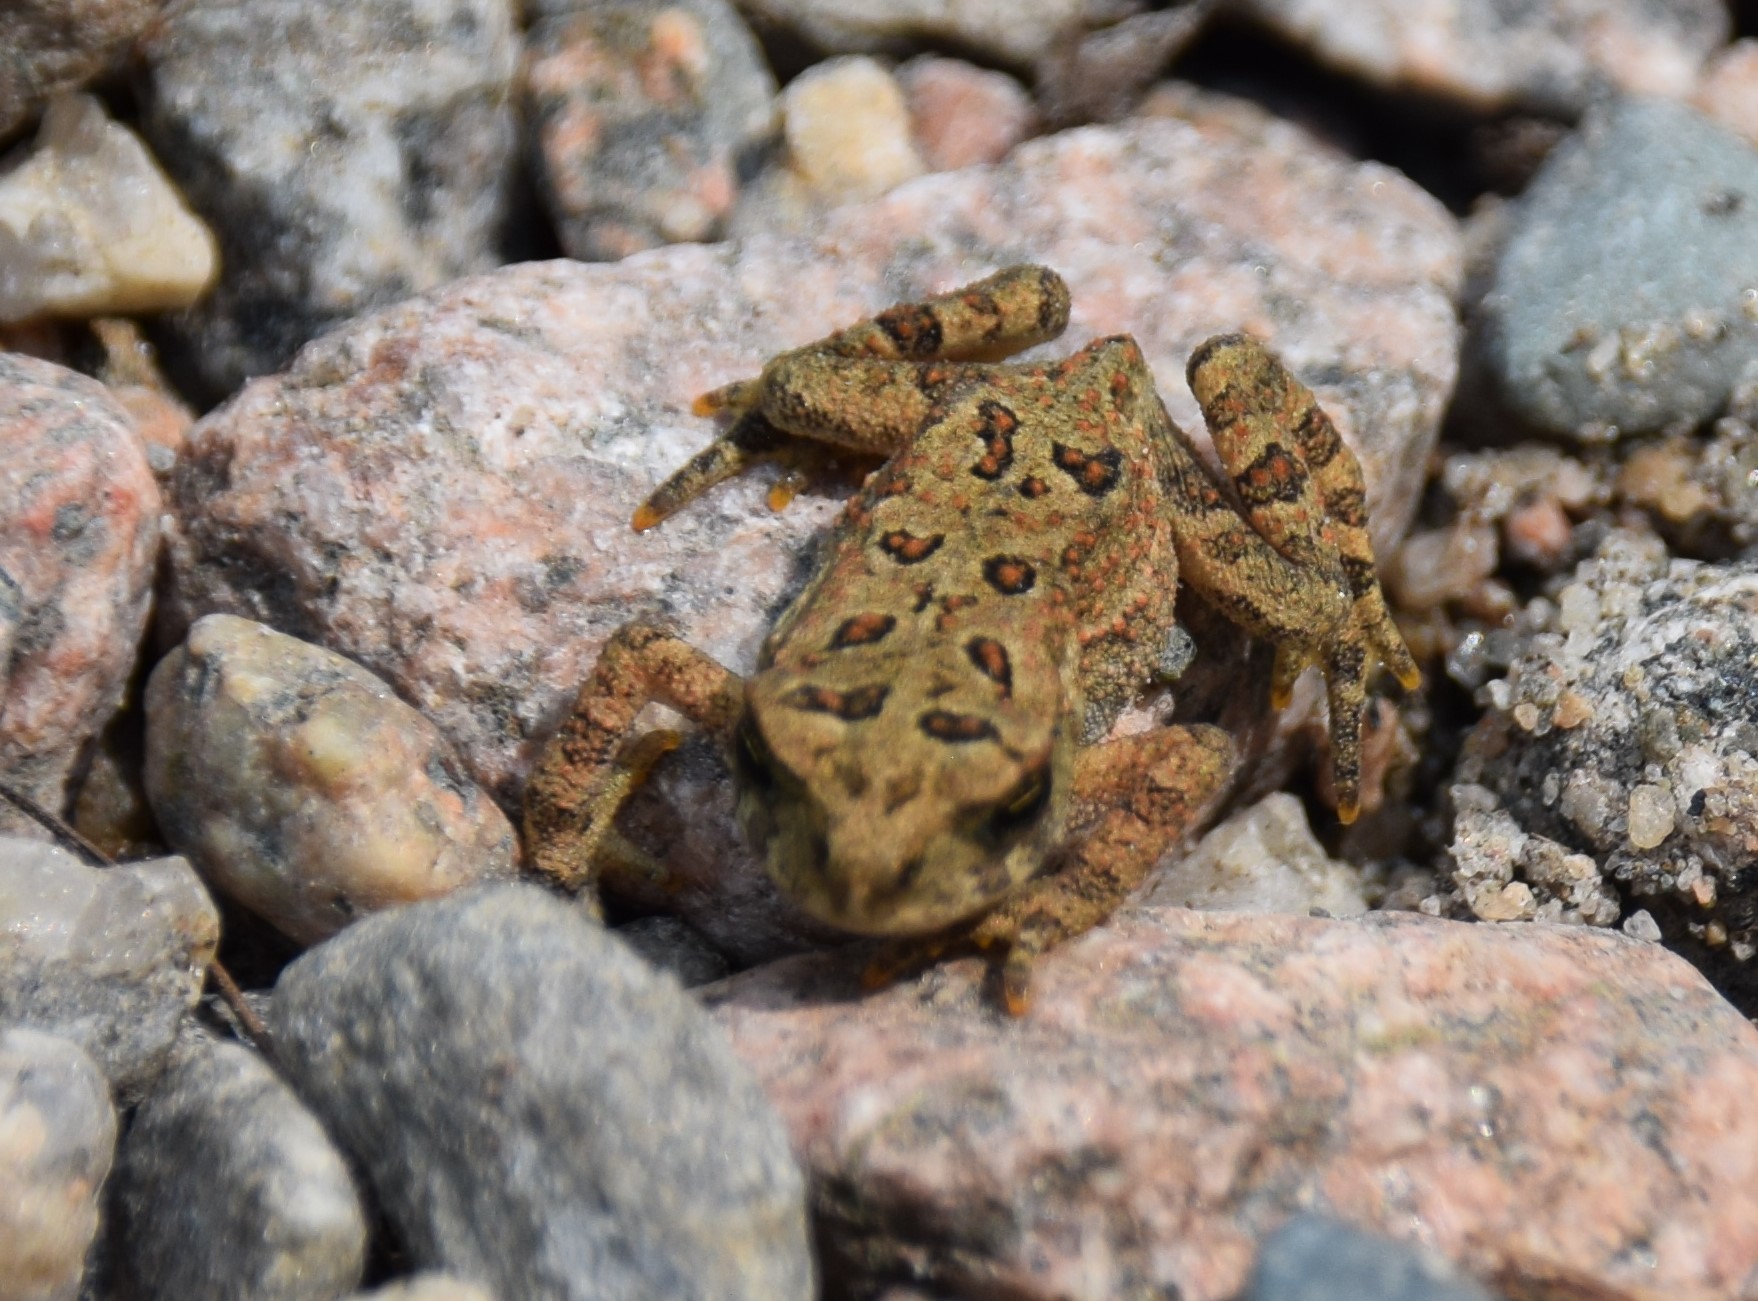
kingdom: Animalia
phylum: Chordata
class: Amphibia
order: Anura
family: Bufonidae
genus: Anaxyrus
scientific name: Anaxyrus americanus
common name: American toad
